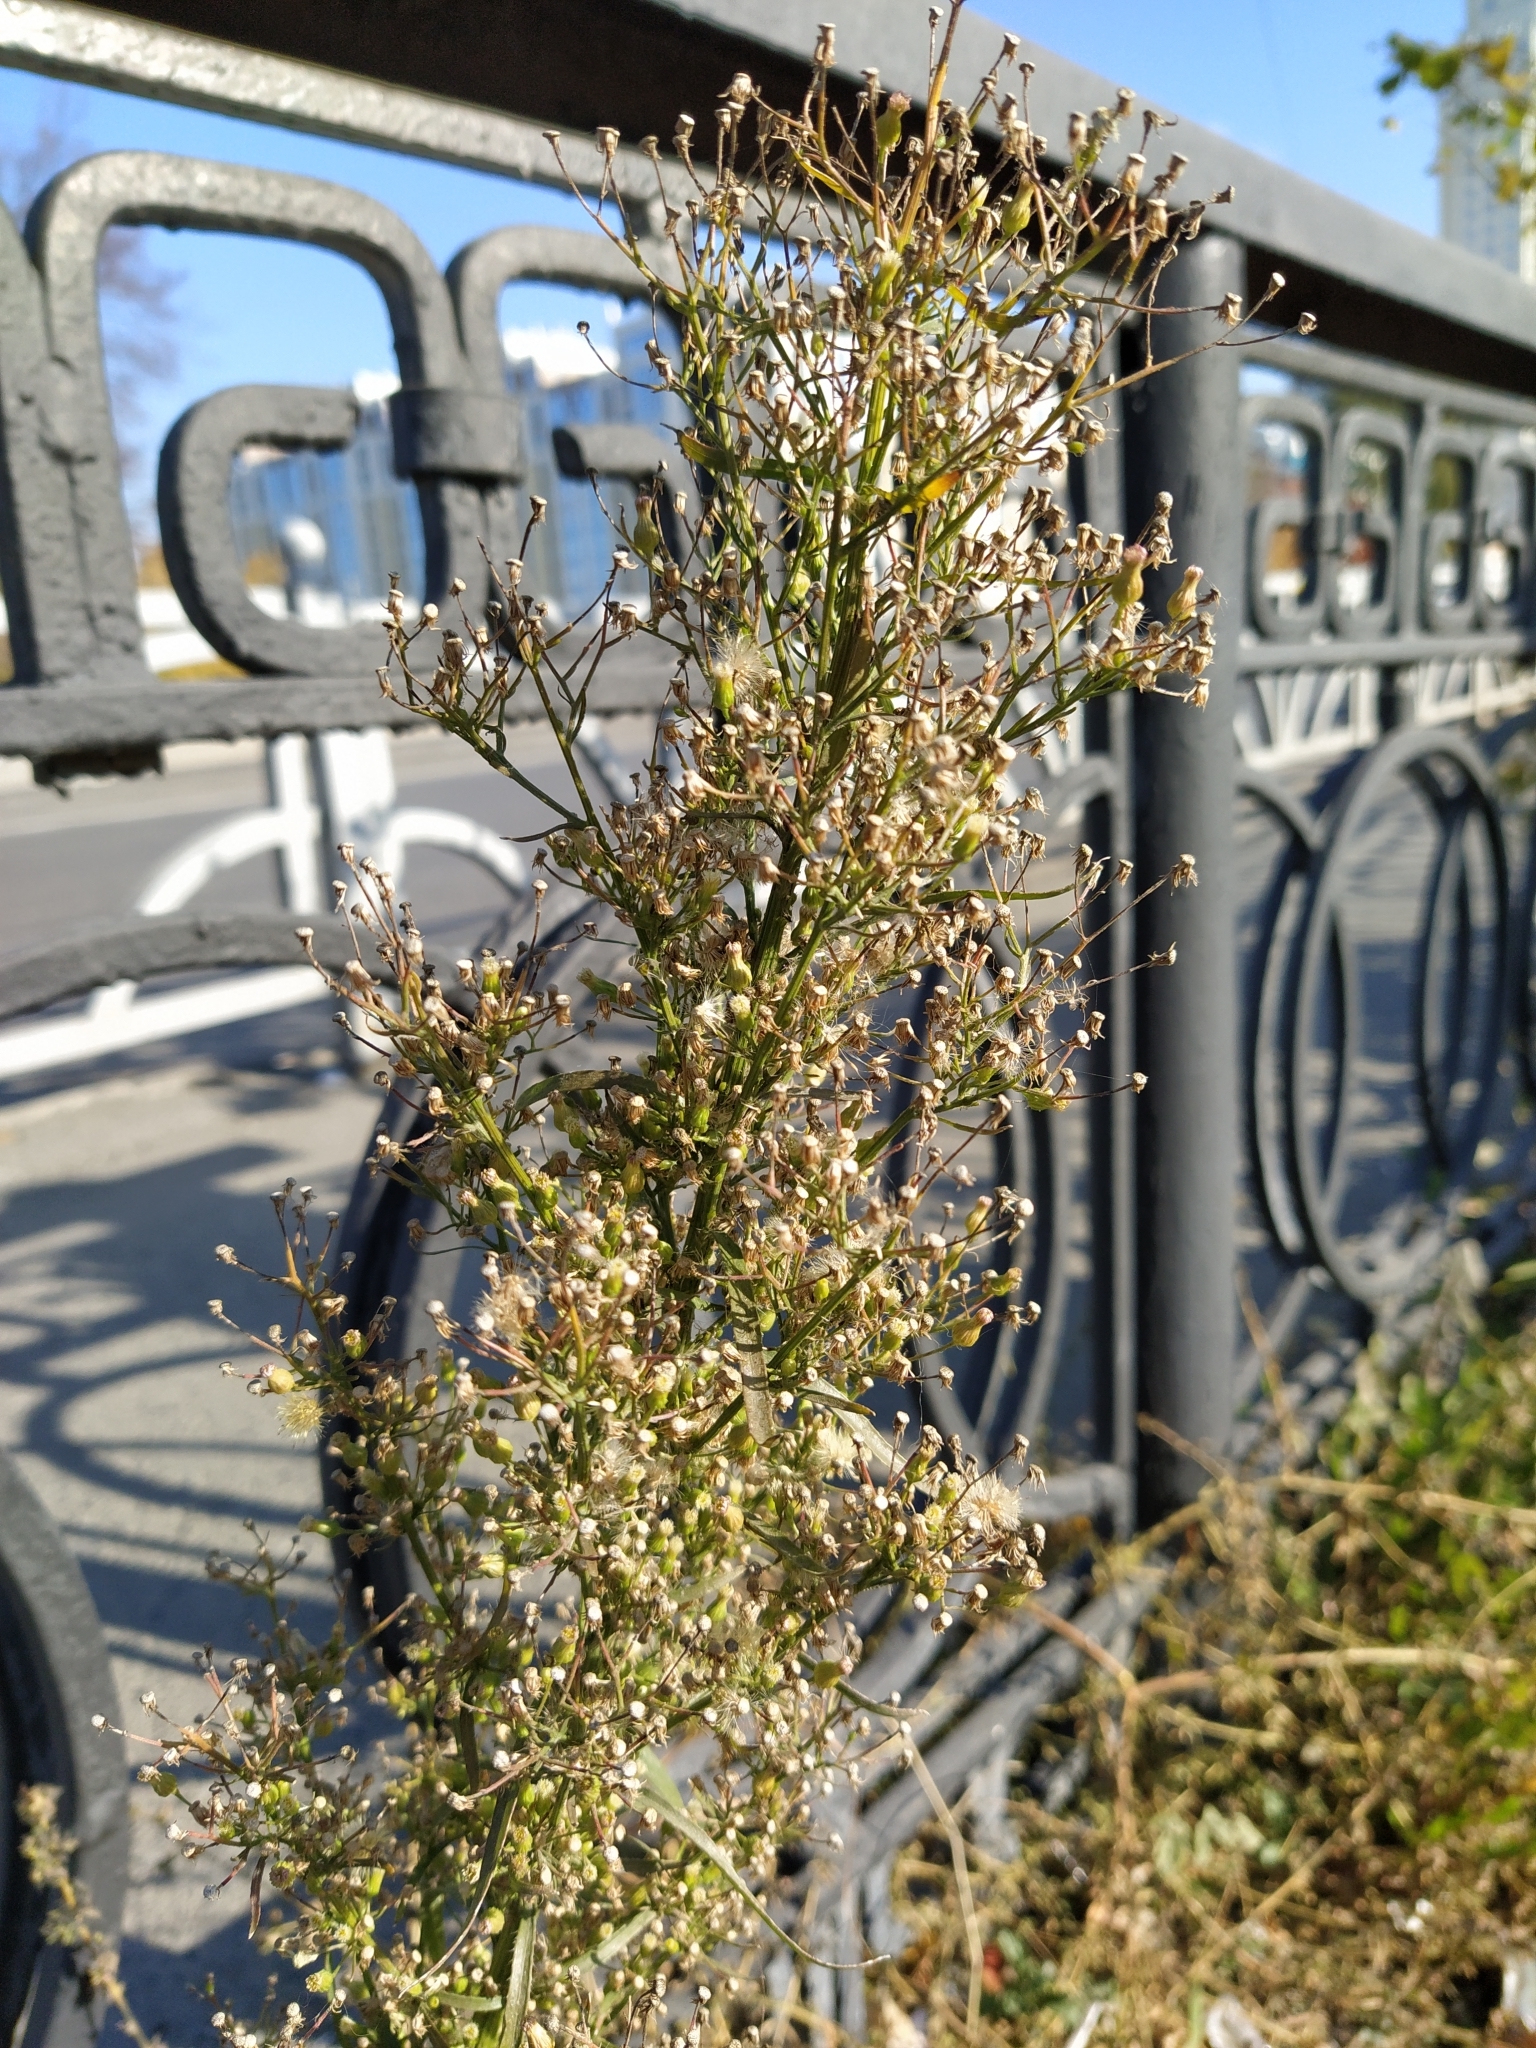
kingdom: Plantae
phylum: Tracheophyta
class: Magnoliopsida
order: Asterales
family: Asteraceae
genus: Erigeron
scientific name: Erigeron canadensis
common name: Canadian fleabane
